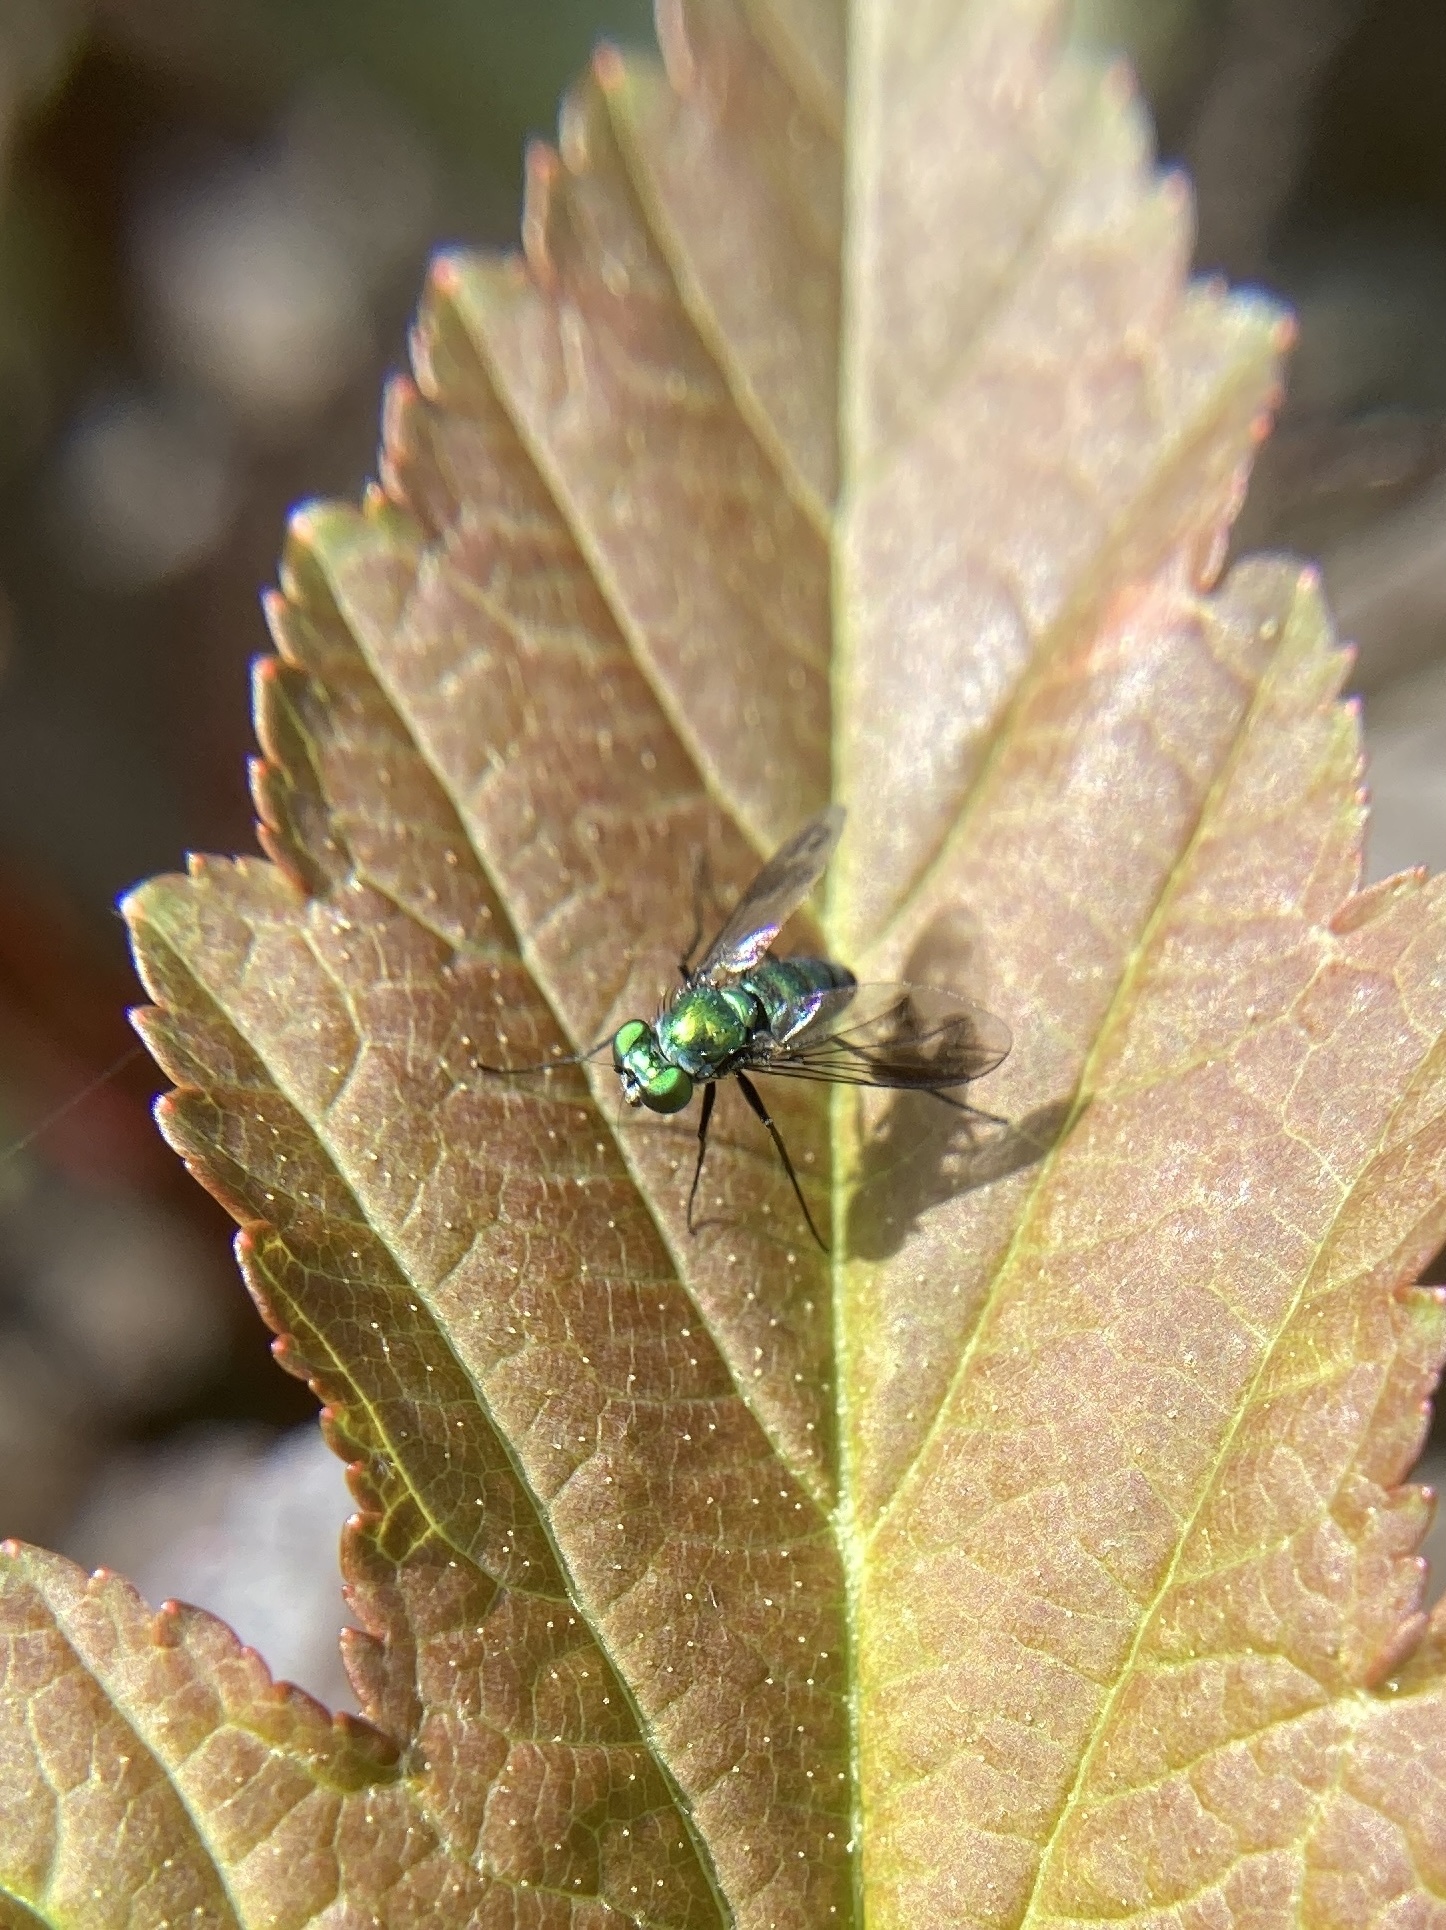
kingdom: Animalia
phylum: Arthropoda
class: Insecta
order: Diptera
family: Dolichopodidae
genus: Condylostylus
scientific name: Condylostylus patibulatus
